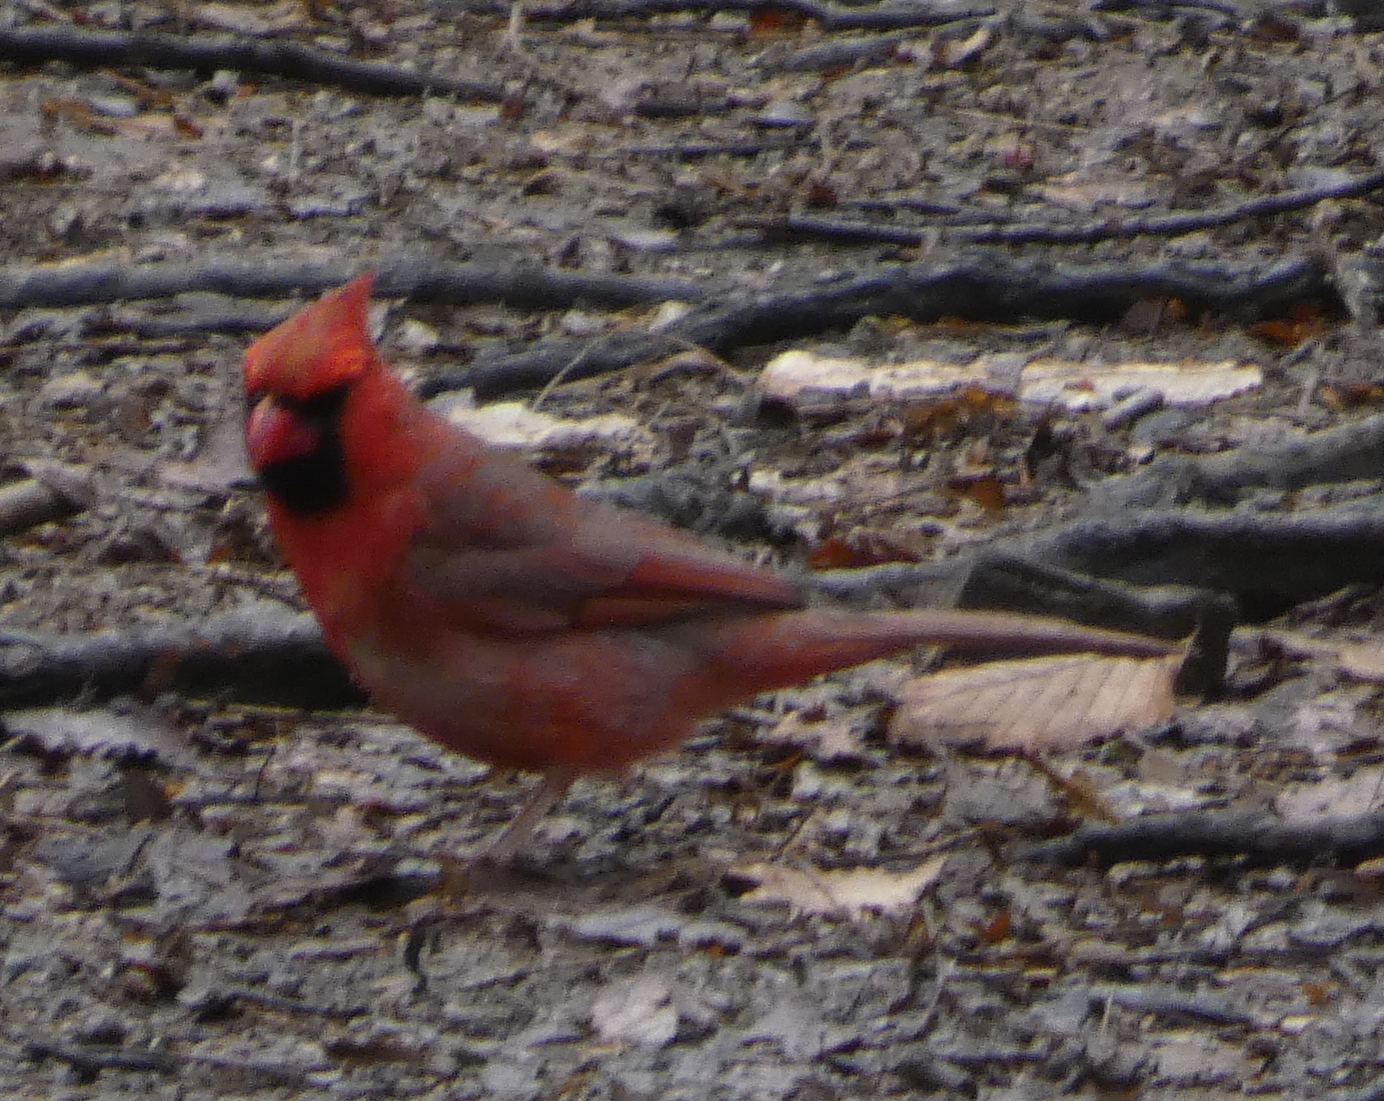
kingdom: Animalia
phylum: Chordata
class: Aves
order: Passeriformes
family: Cardinalidae
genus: Cardinalis
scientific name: Cardinalis cardinalis
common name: Northern cardinal
